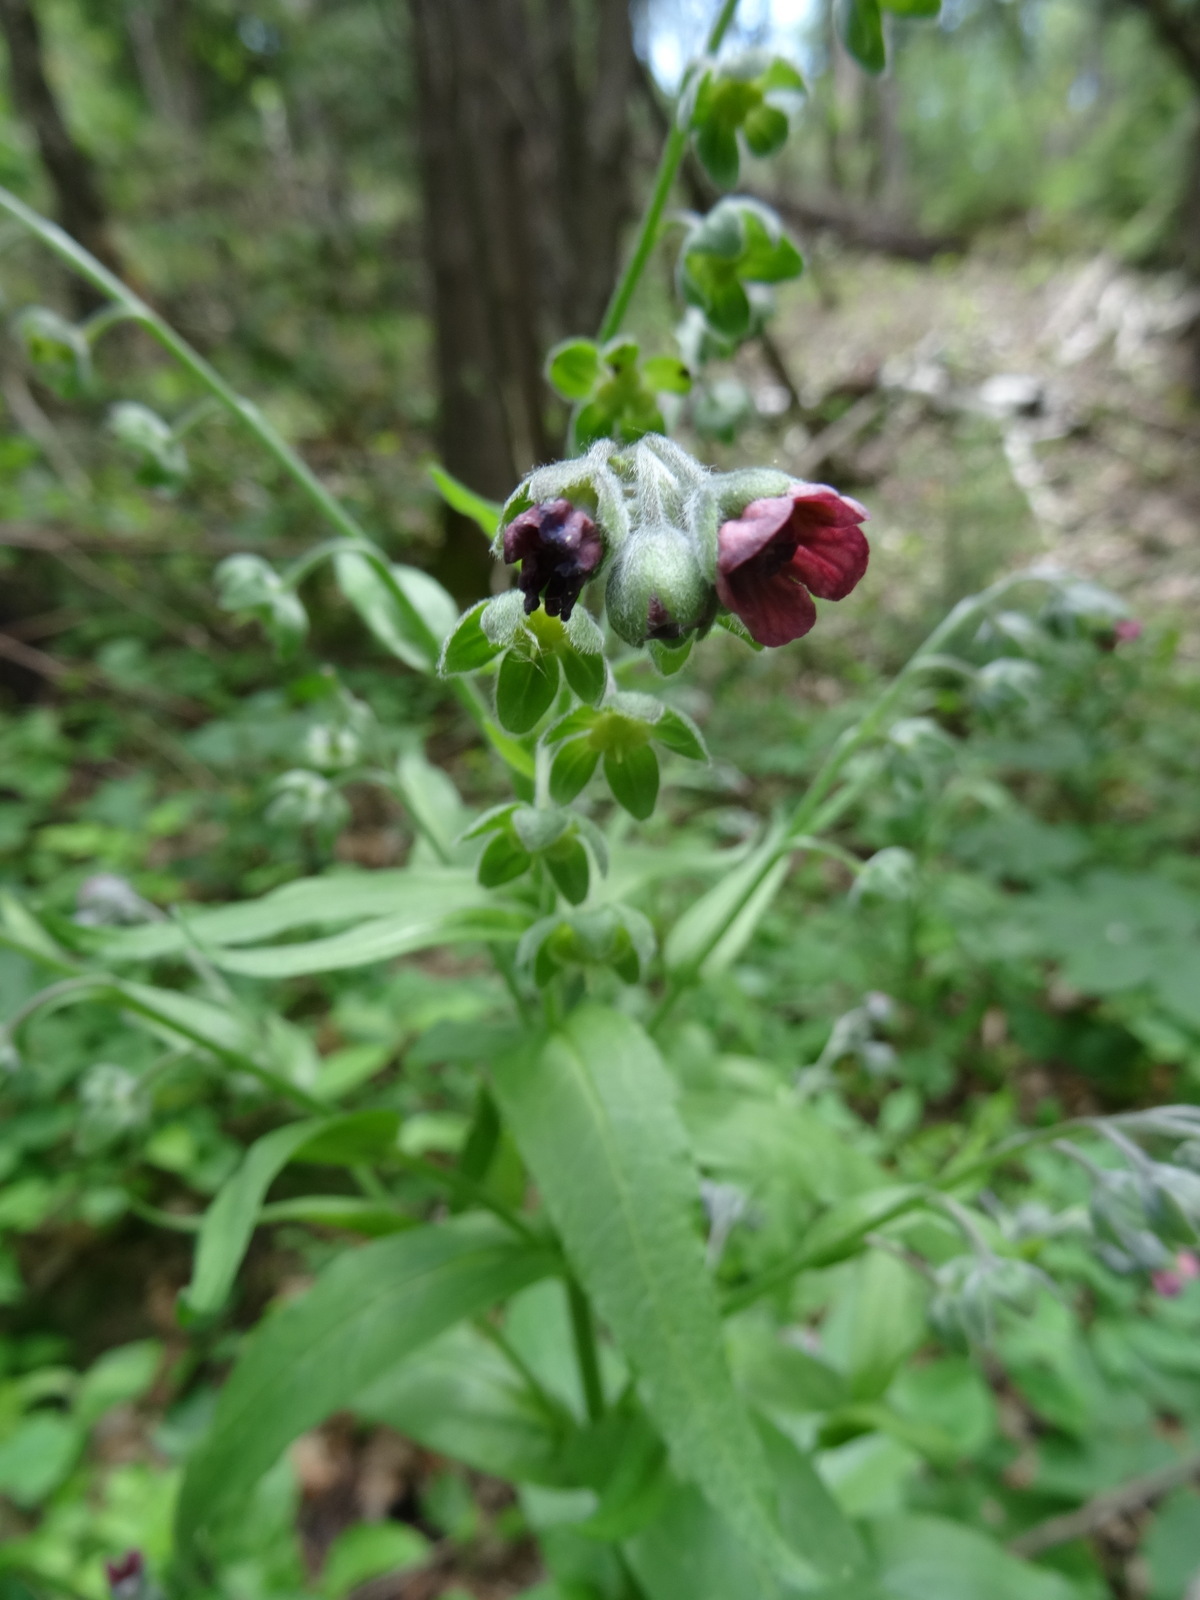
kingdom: Plantae
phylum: Tracheophyta
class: Magnoliopsida
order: Boraginales
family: Boraginaceae
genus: Cynoglossum
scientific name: Cynoglossum officinale
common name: Hound's-tongue
